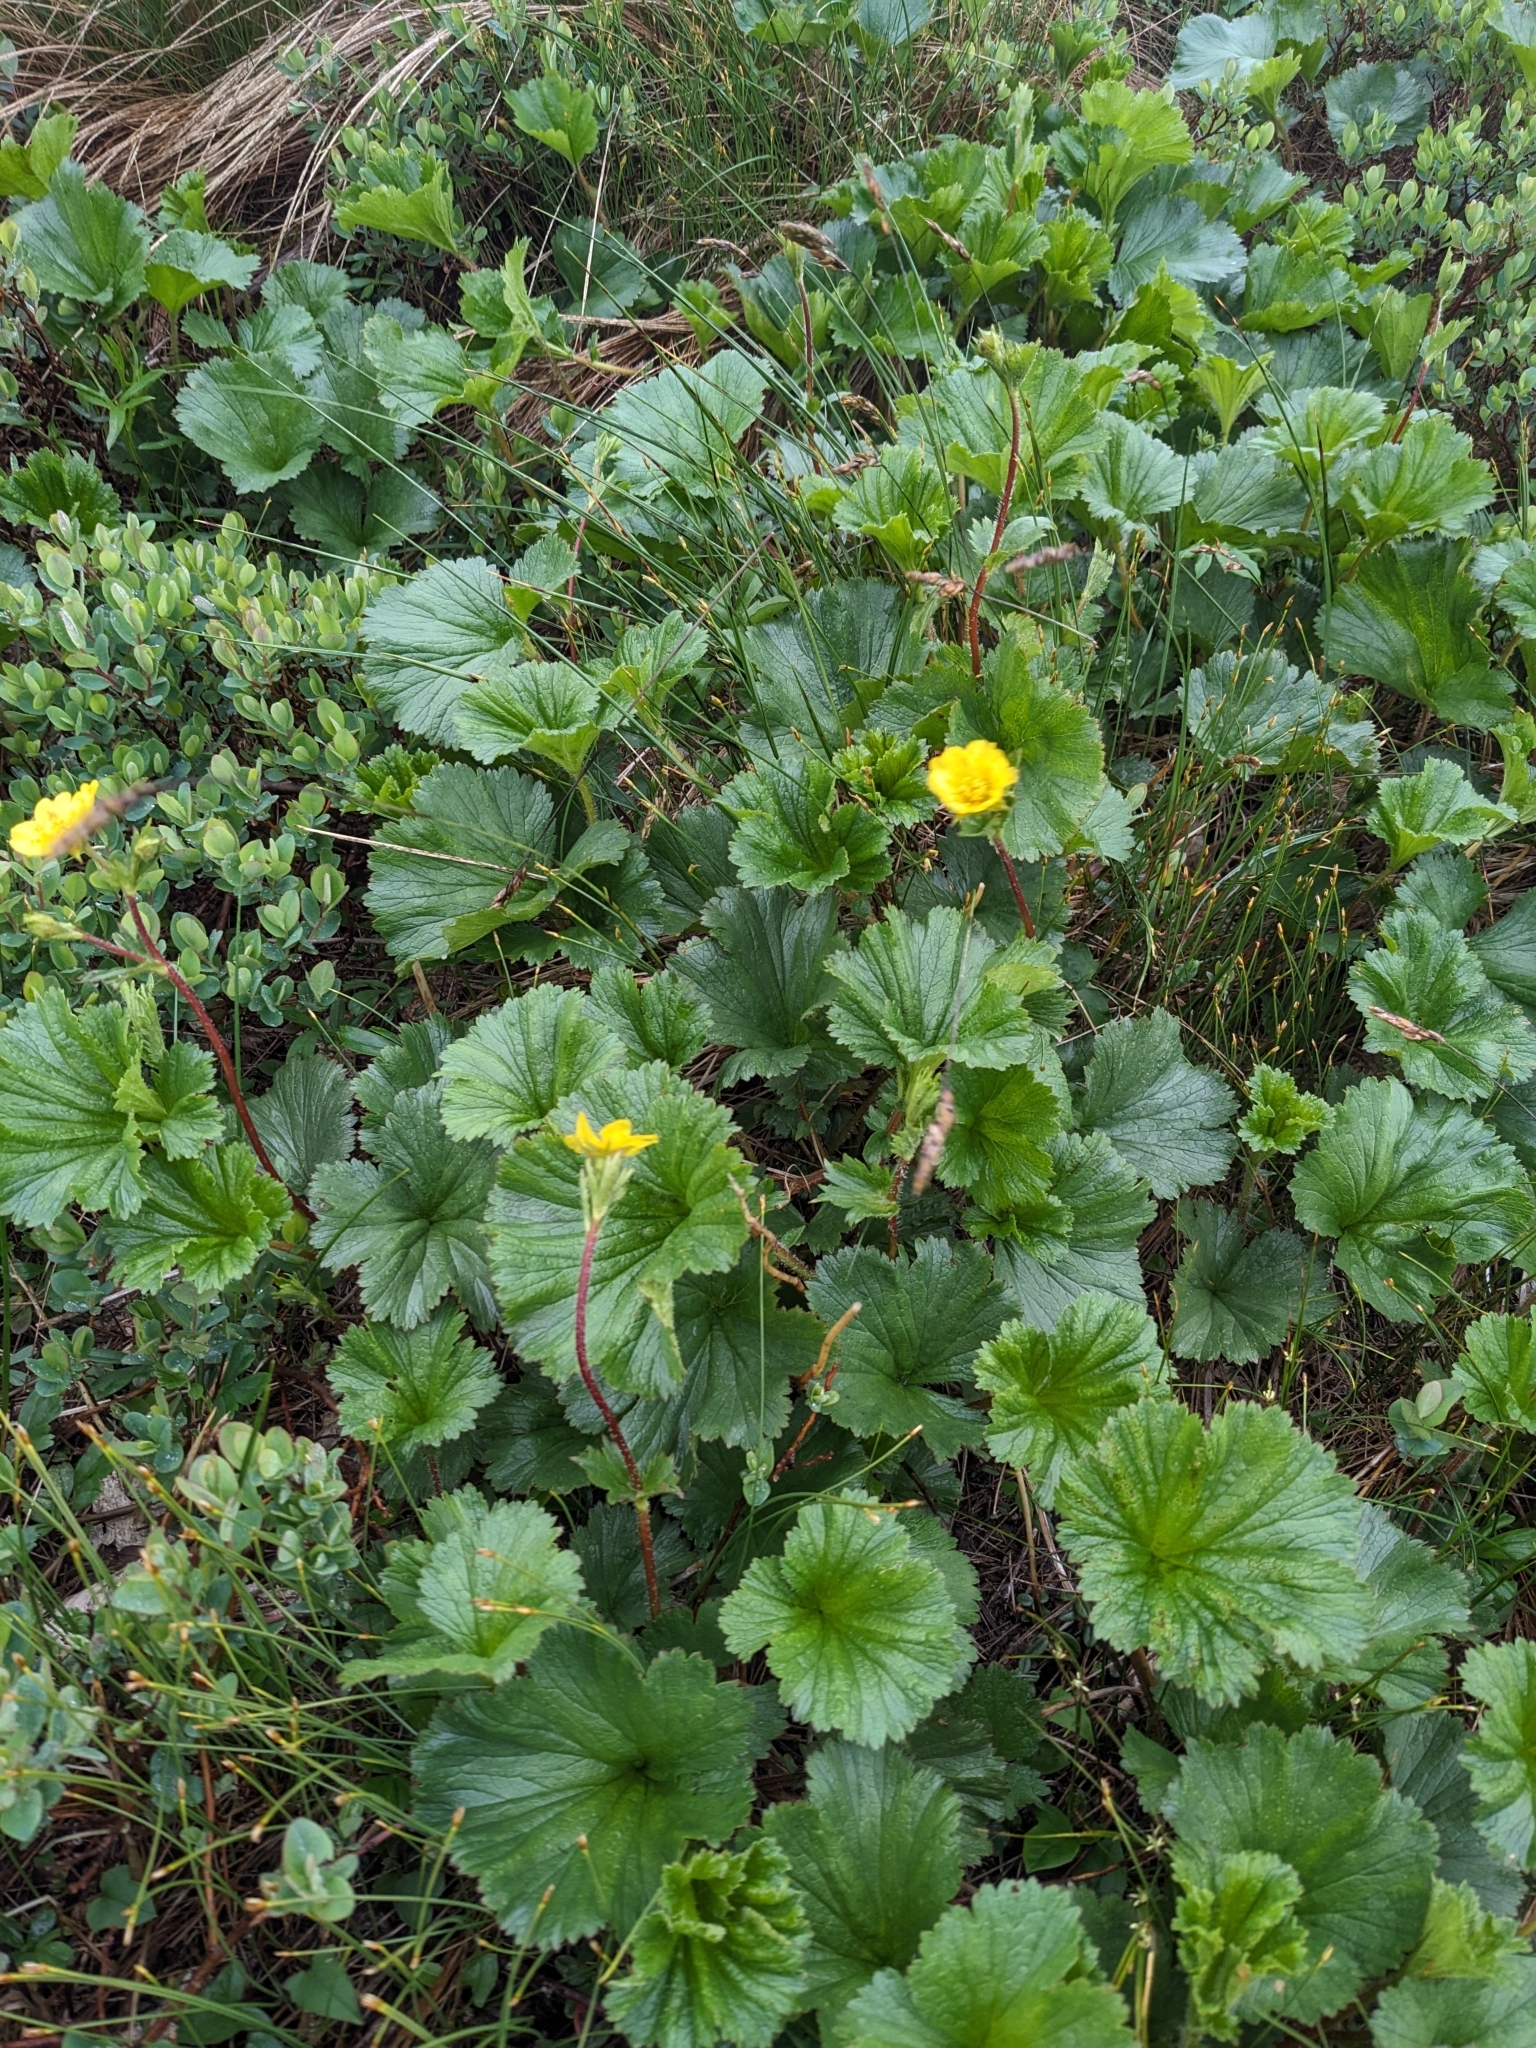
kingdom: Plantae
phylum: Tracheophyta
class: Magnoliopsida
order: Rosales
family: Rosaceae
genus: Geum
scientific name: Geum peckii
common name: Eastern mountain avens
